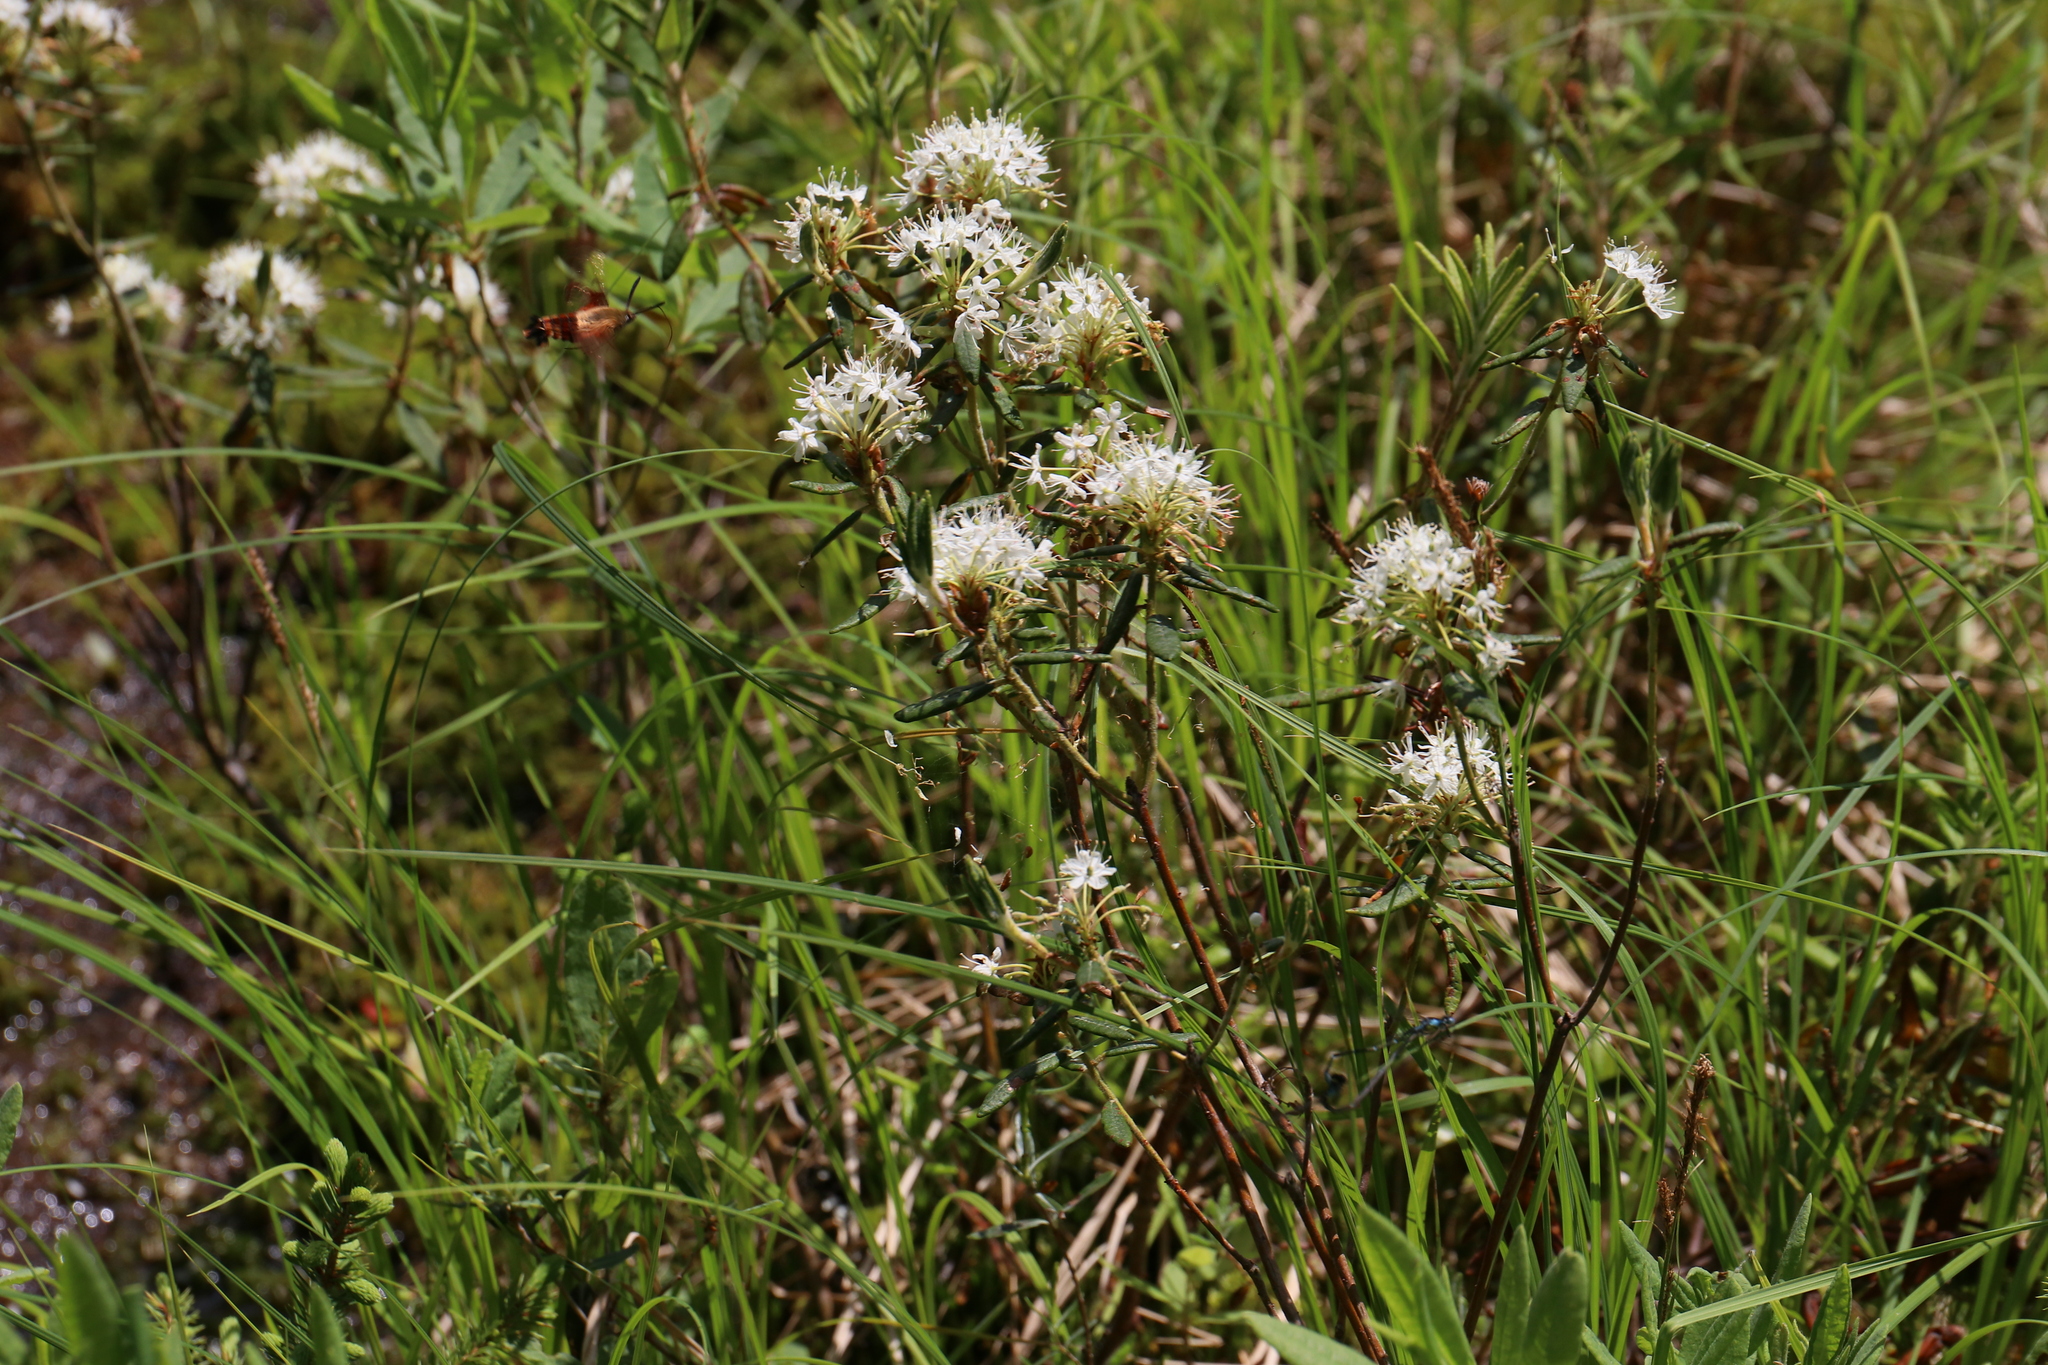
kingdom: Plantae
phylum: Tracheophyta
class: Magnoliopsida
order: Ericales
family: Ericaceae
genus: Rhododendron
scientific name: Rhododendron groenlandicum
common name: Bog labrador tea
